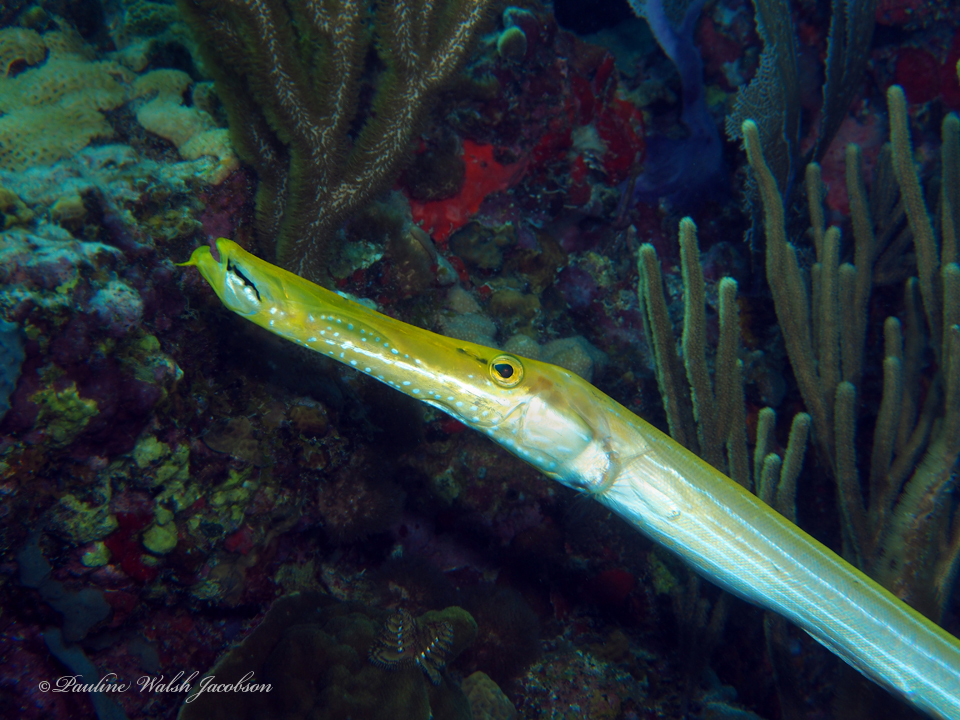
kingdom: Animalia
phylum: Chordata
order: Syngnathiformes
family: Aulostomidae
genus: Aulostomus
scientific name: Aulostomus maculatus
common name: West atlantic trumpetfish
